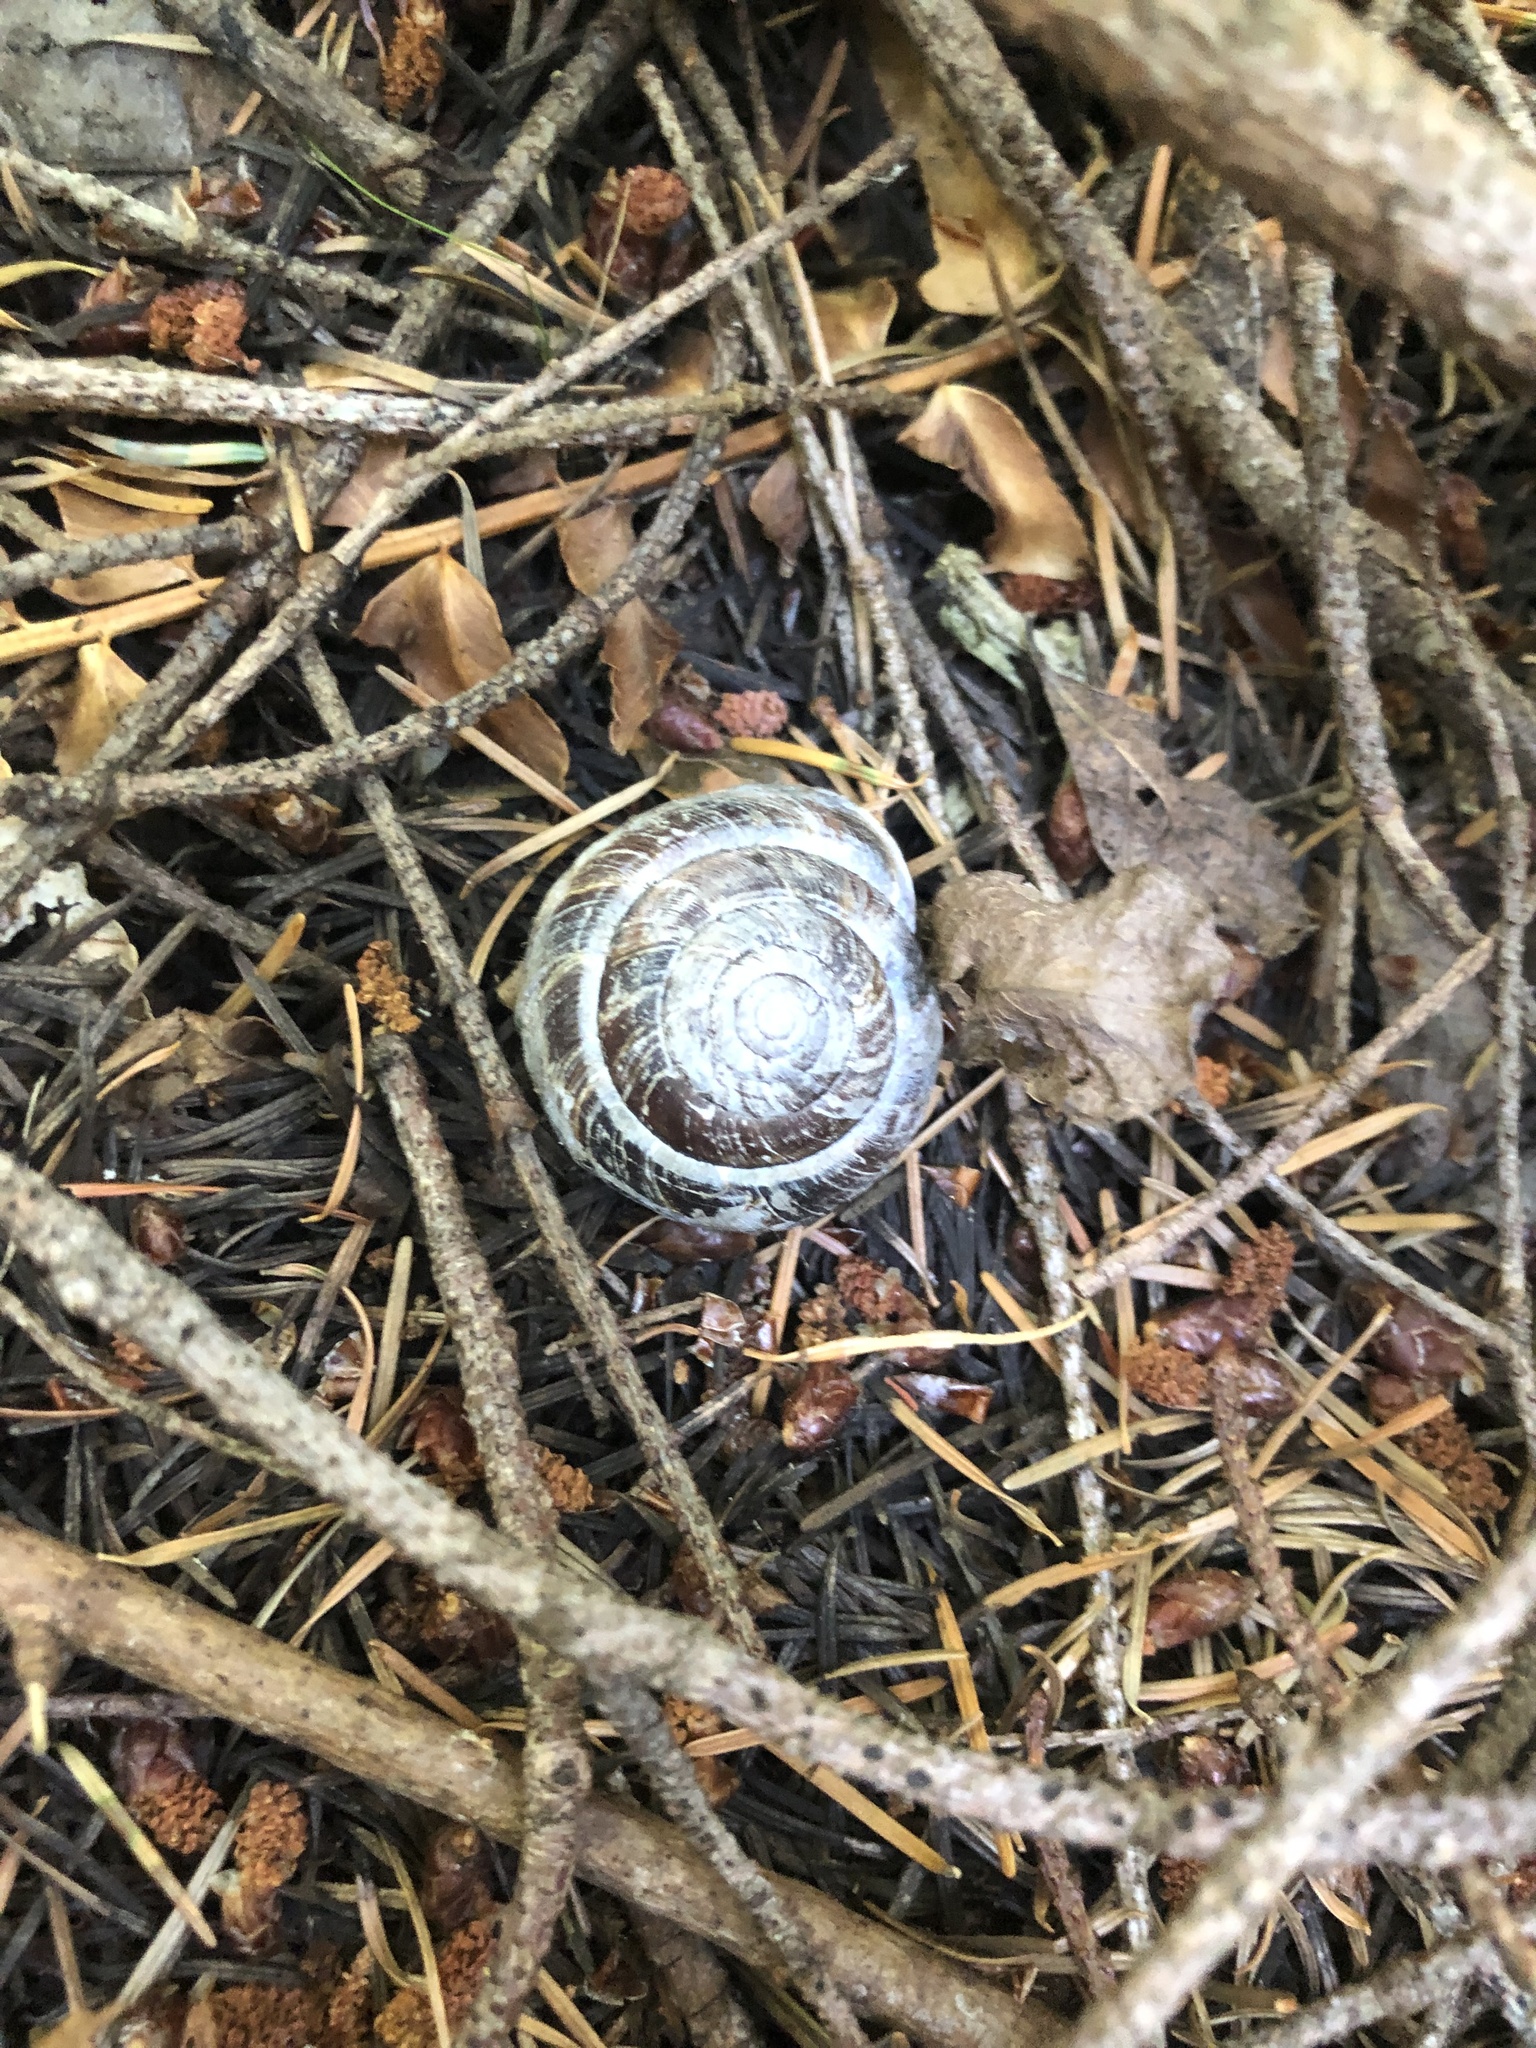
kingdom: Animalia
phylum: Mollusca
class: Gastropoda
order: Stylommatophora
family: Xanthonychidae
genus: Monadenia
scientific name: Monadenia fidelis
